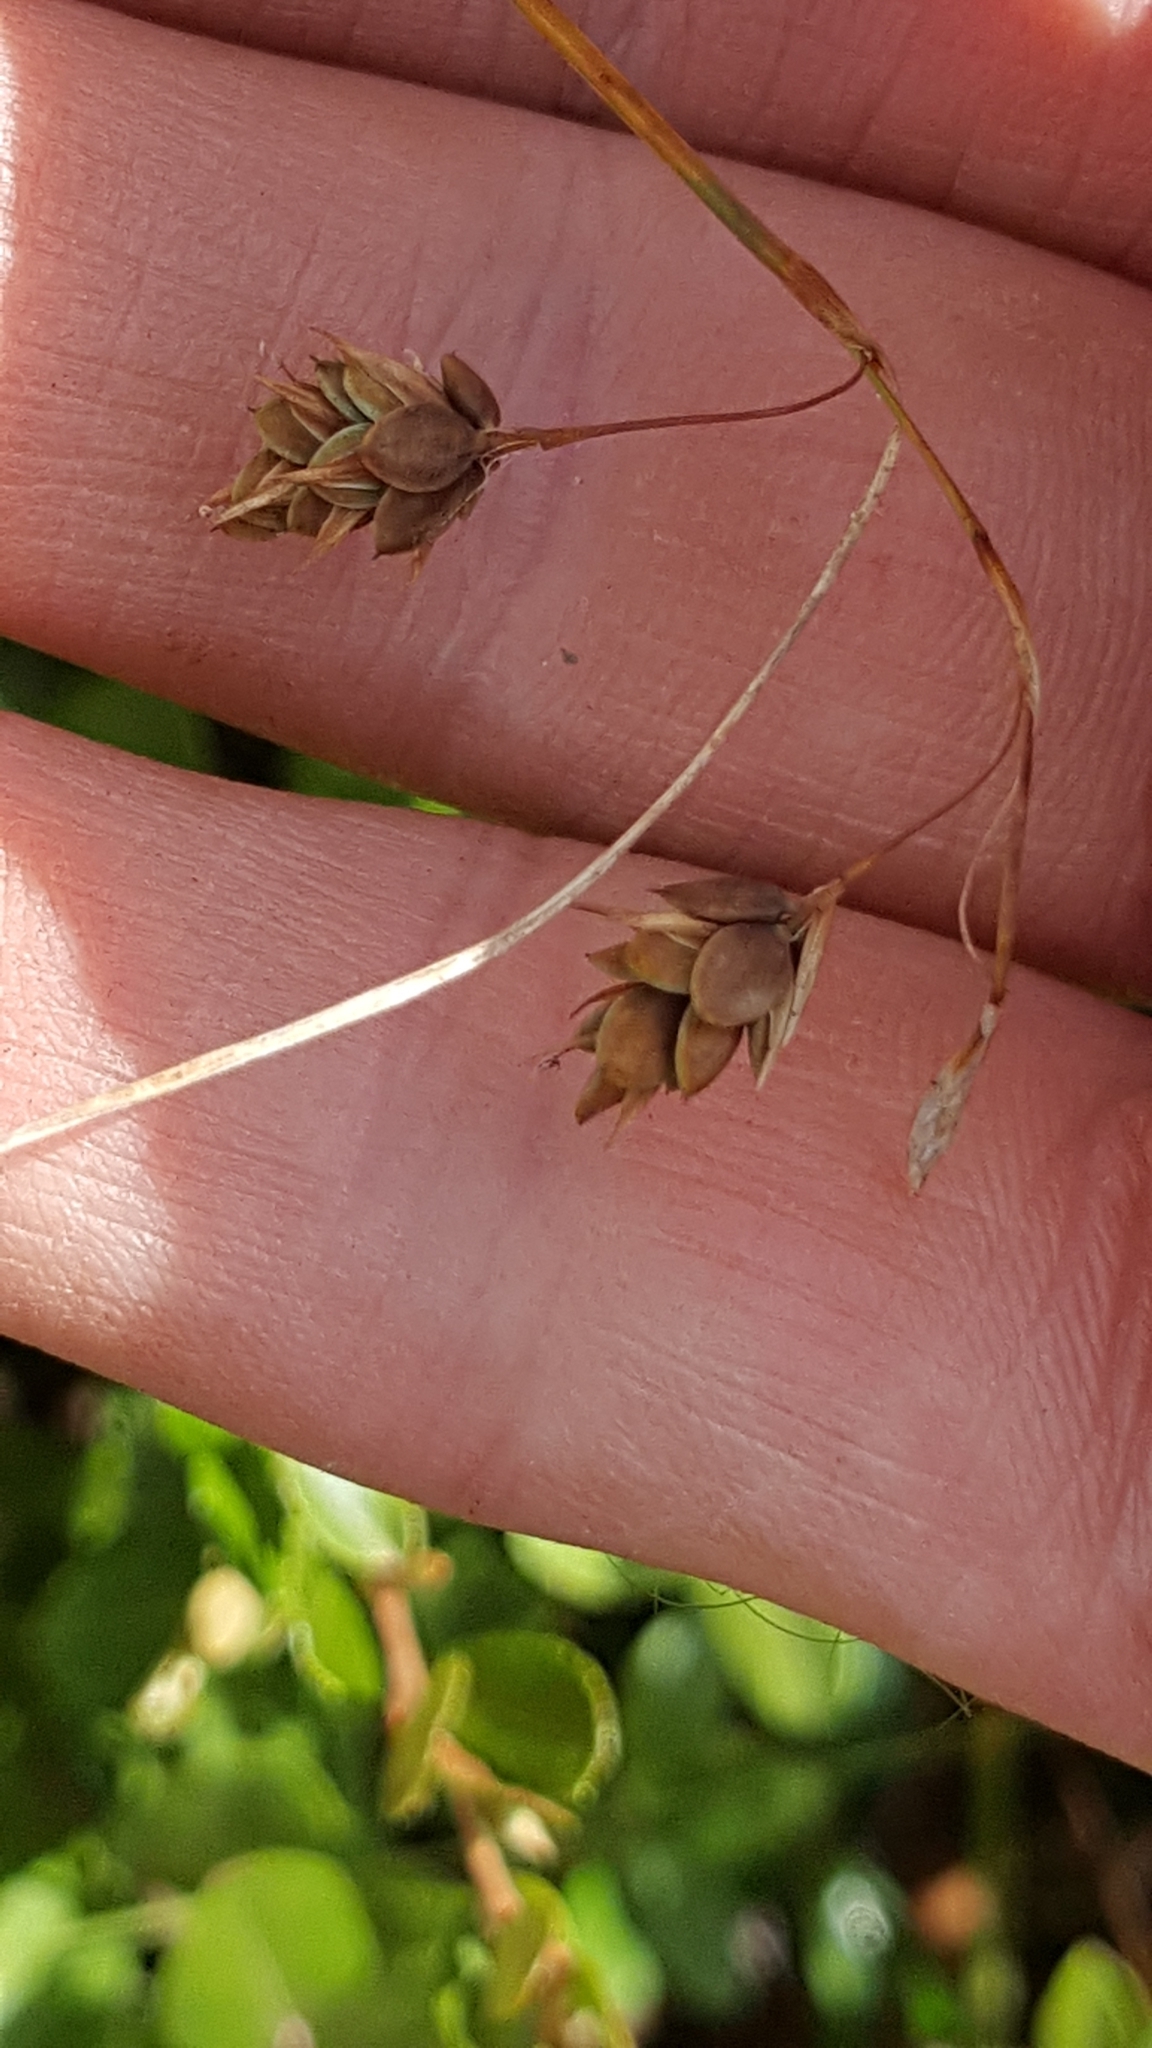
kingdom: Plantae
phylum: Tracheophyta
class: Liliopsida
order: Poales
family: Cyperaceae
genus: Carex
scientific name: Carex magellanica
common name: Bog sedge
